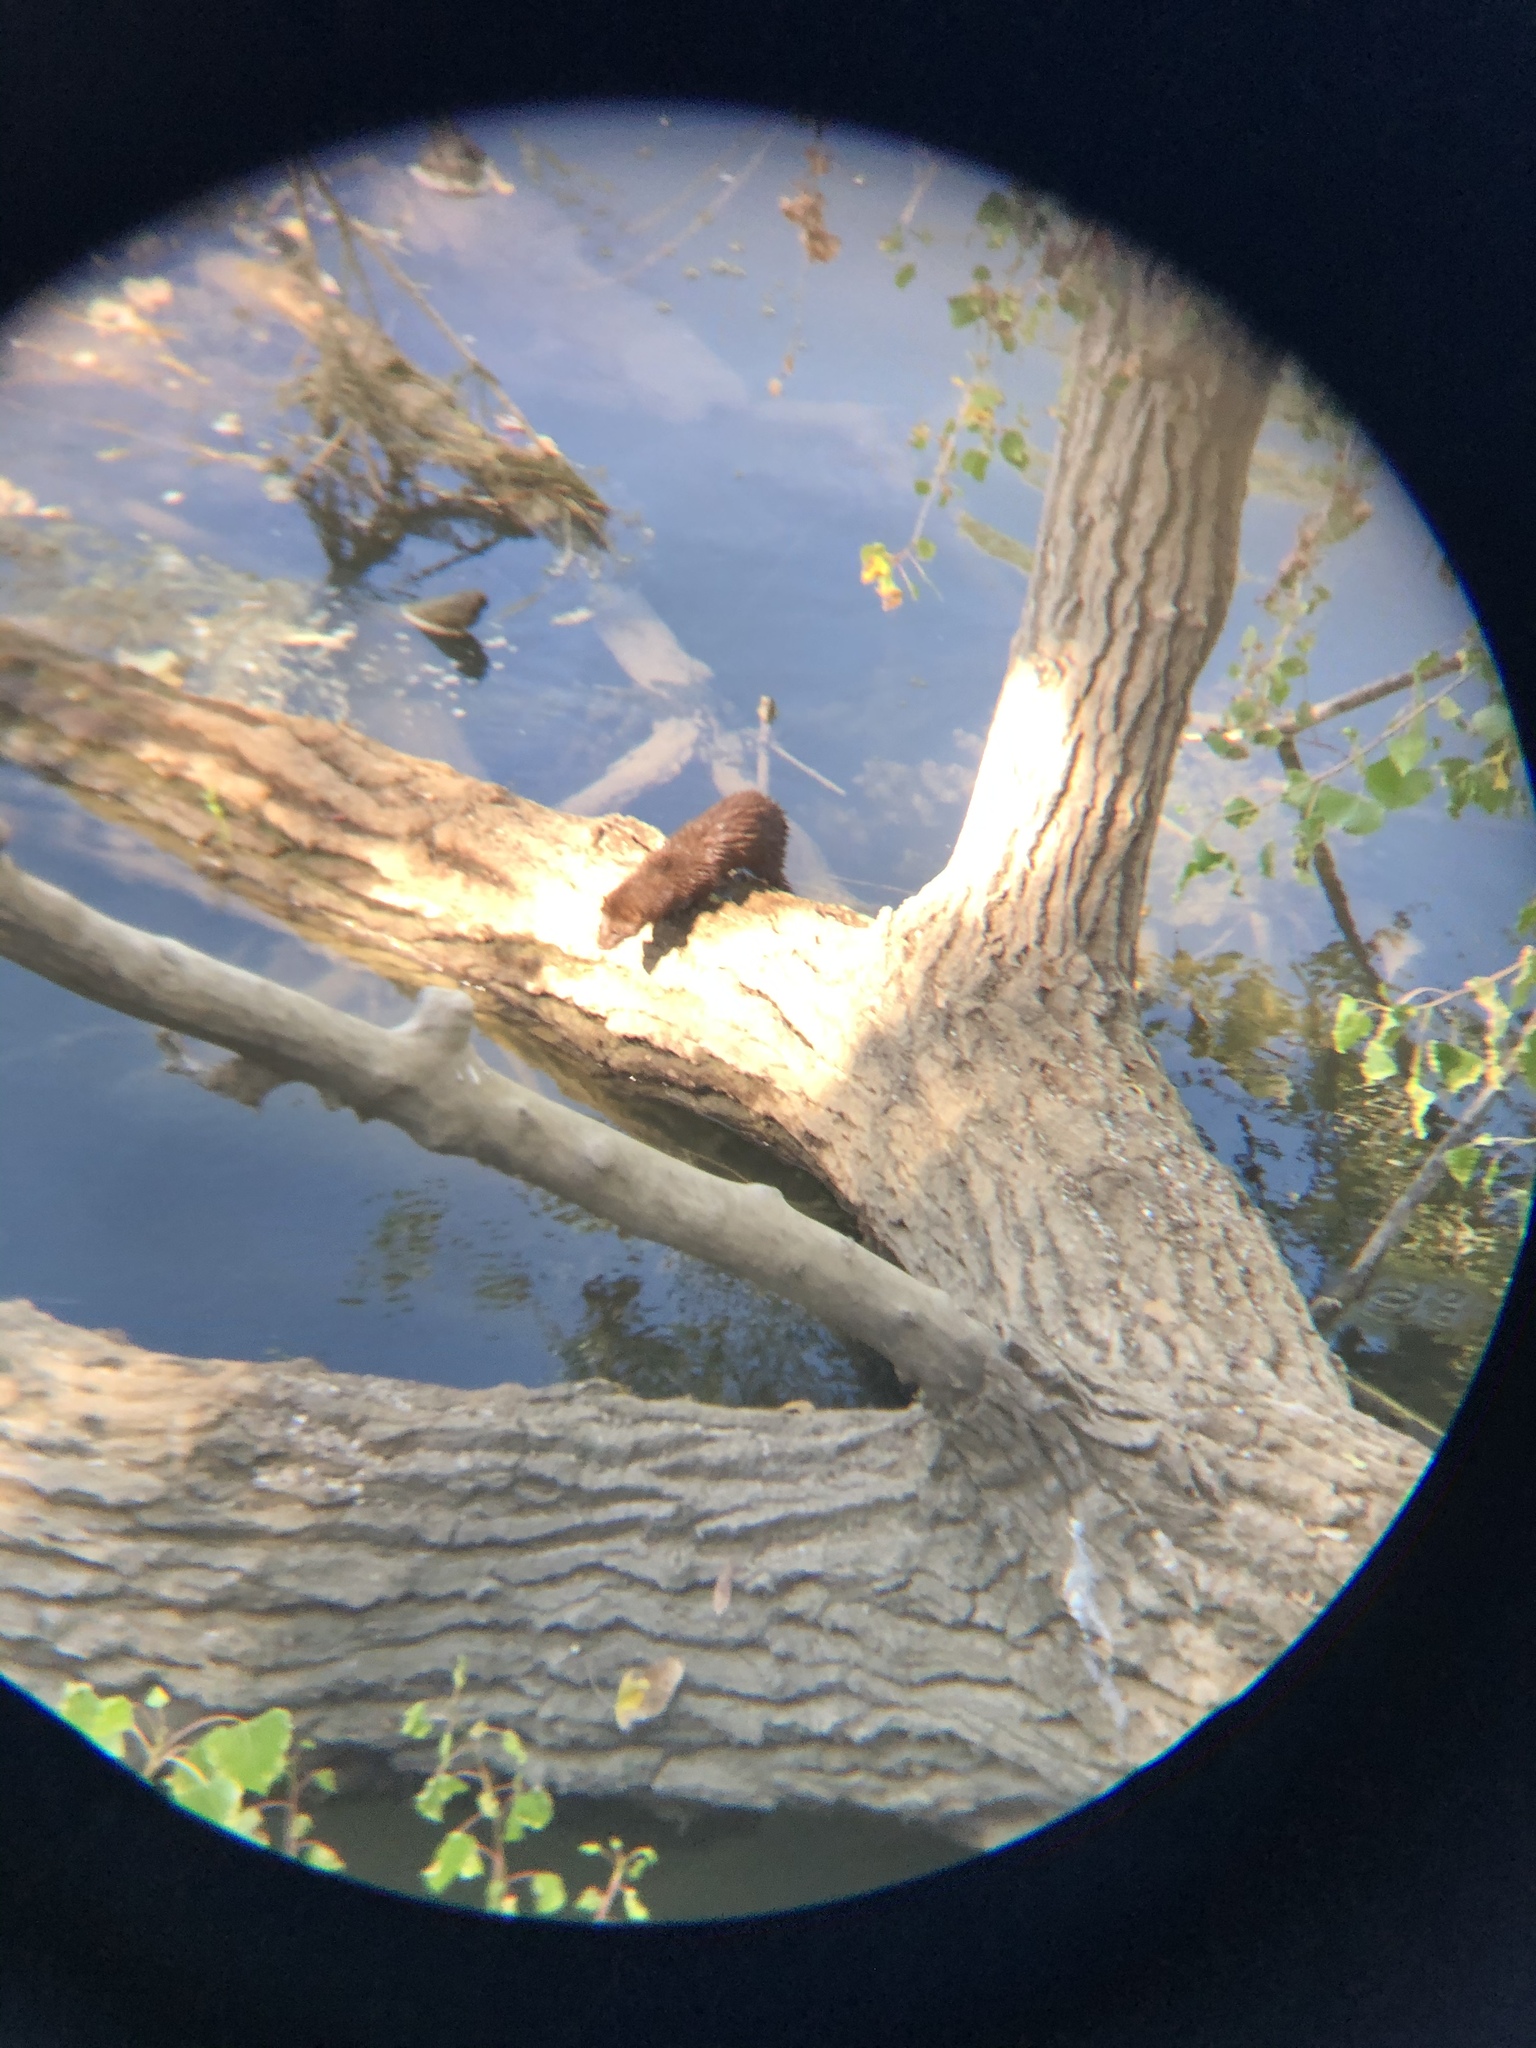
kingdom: Animalia
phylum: Chordata
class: Mammalia
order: Carnivora
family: Mustelidae
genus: Mustela
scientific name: Mustela
